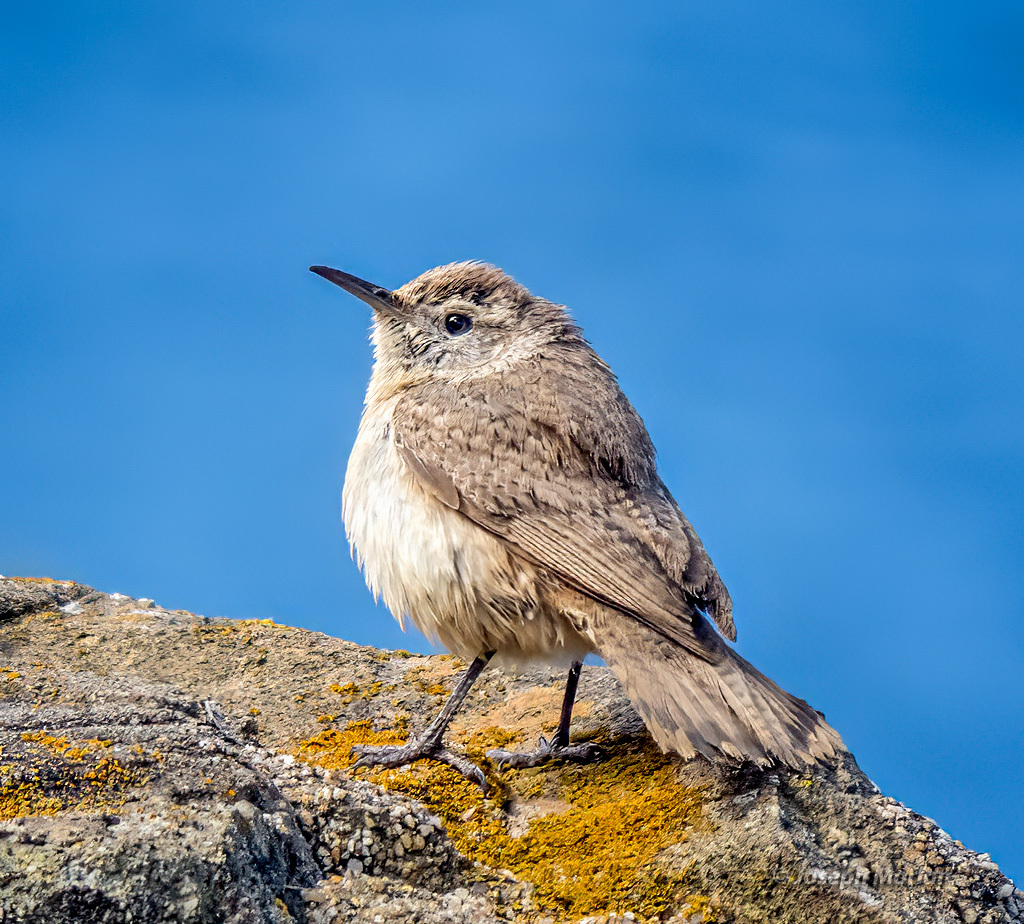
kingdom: Animalia
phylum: Chordata
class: Aves
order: Passeriformes
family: Troglodytidae
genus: Salpinctes
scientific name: Salpinctes obsoletus
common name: Rock wren
